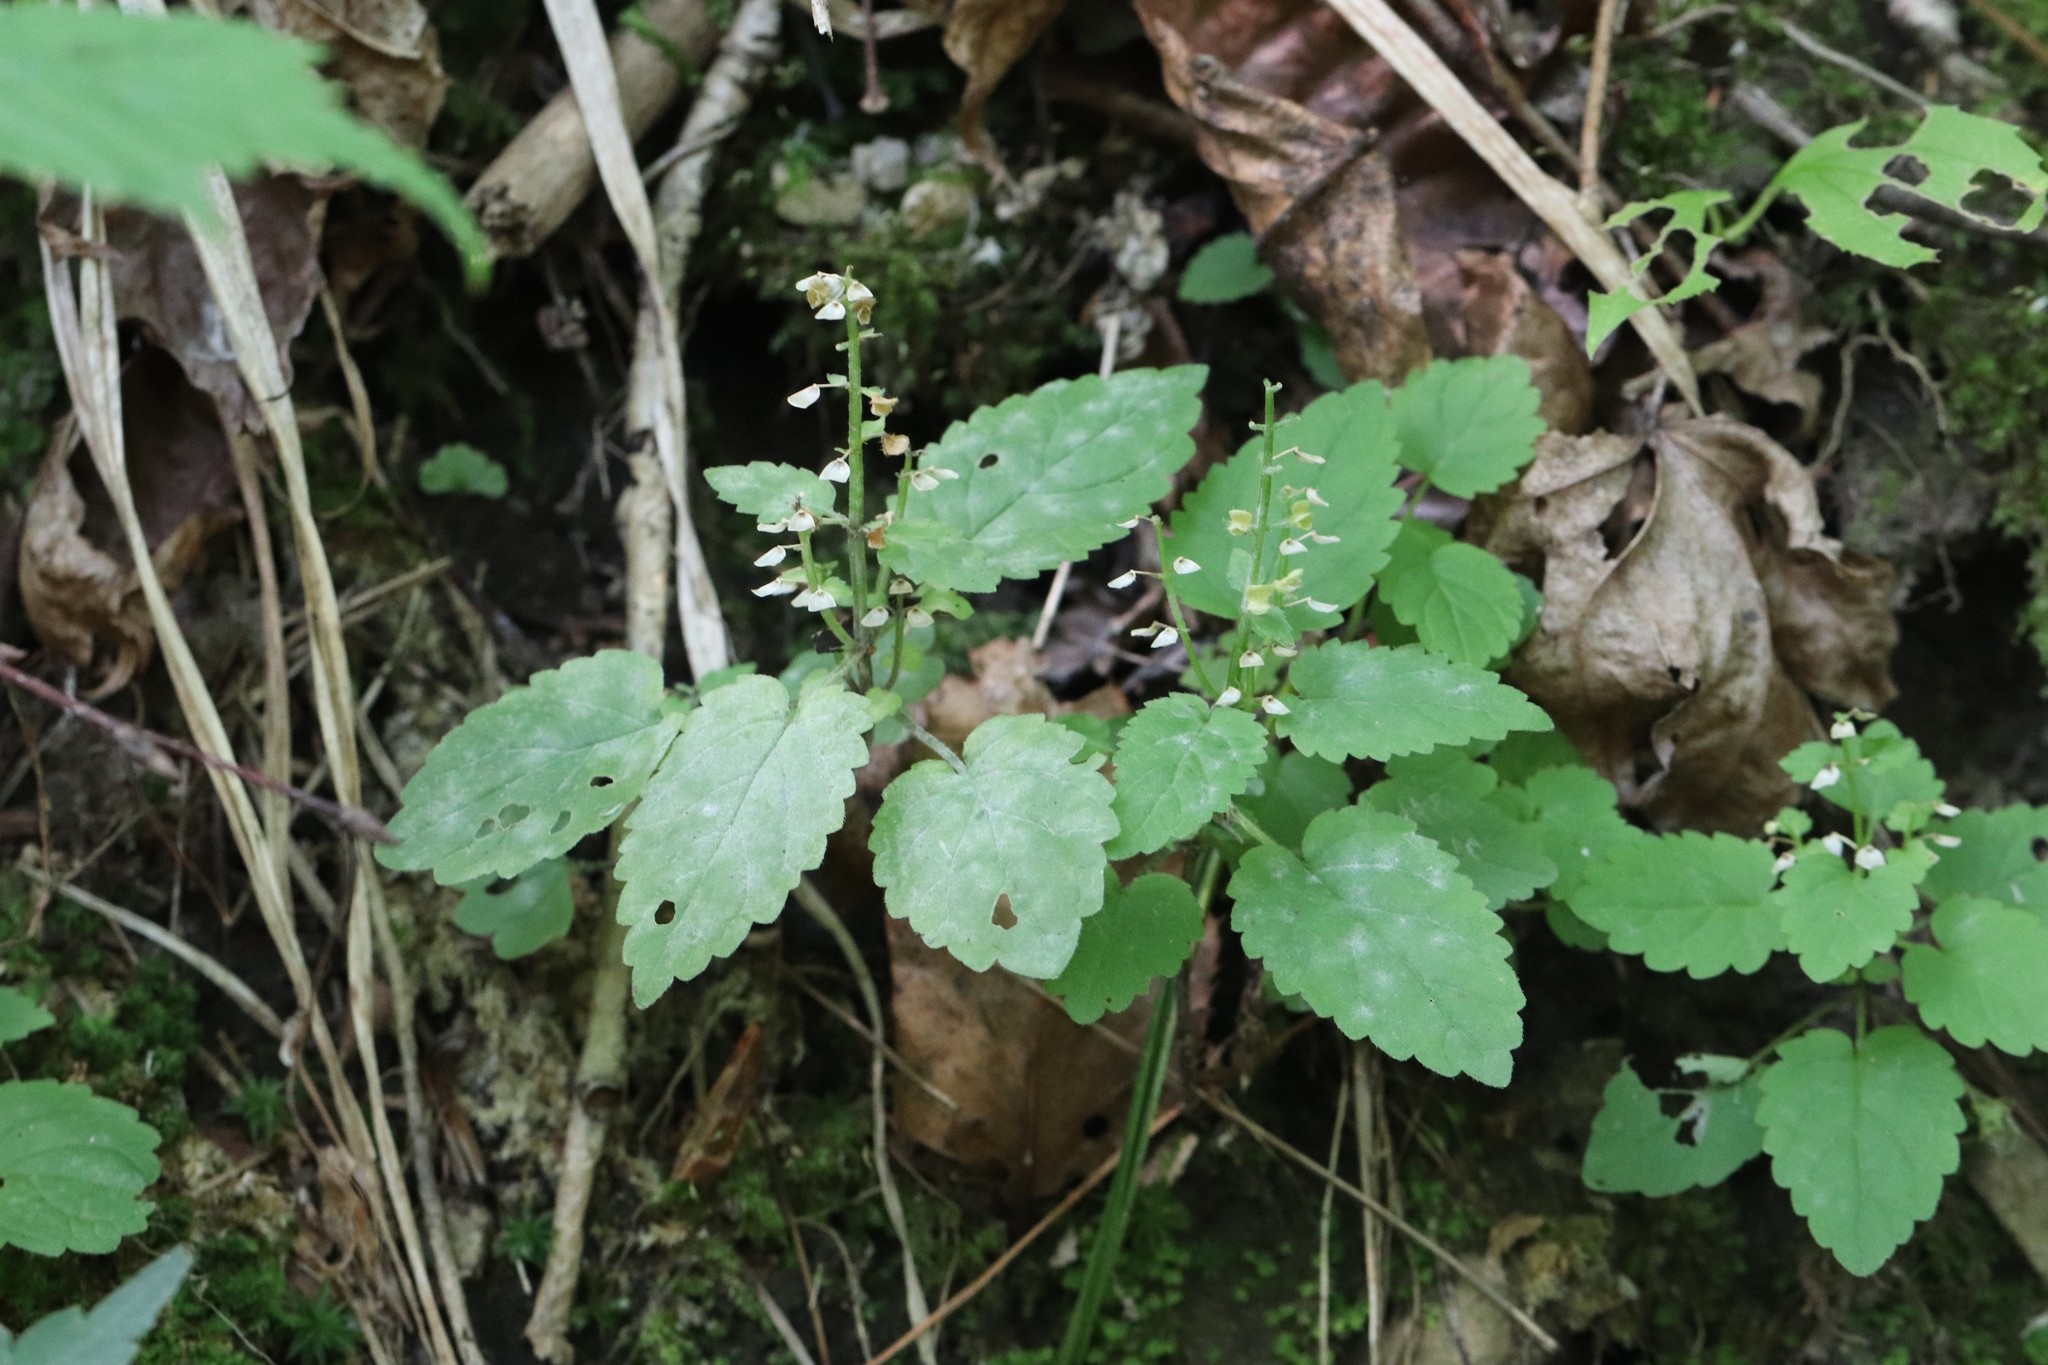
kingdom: Plantae
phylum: Tracheophyta
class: Magnoliopsida
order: Lamiales
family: Lamiaceae
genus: Scutellaria
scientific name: Scutellaria pekinensis
